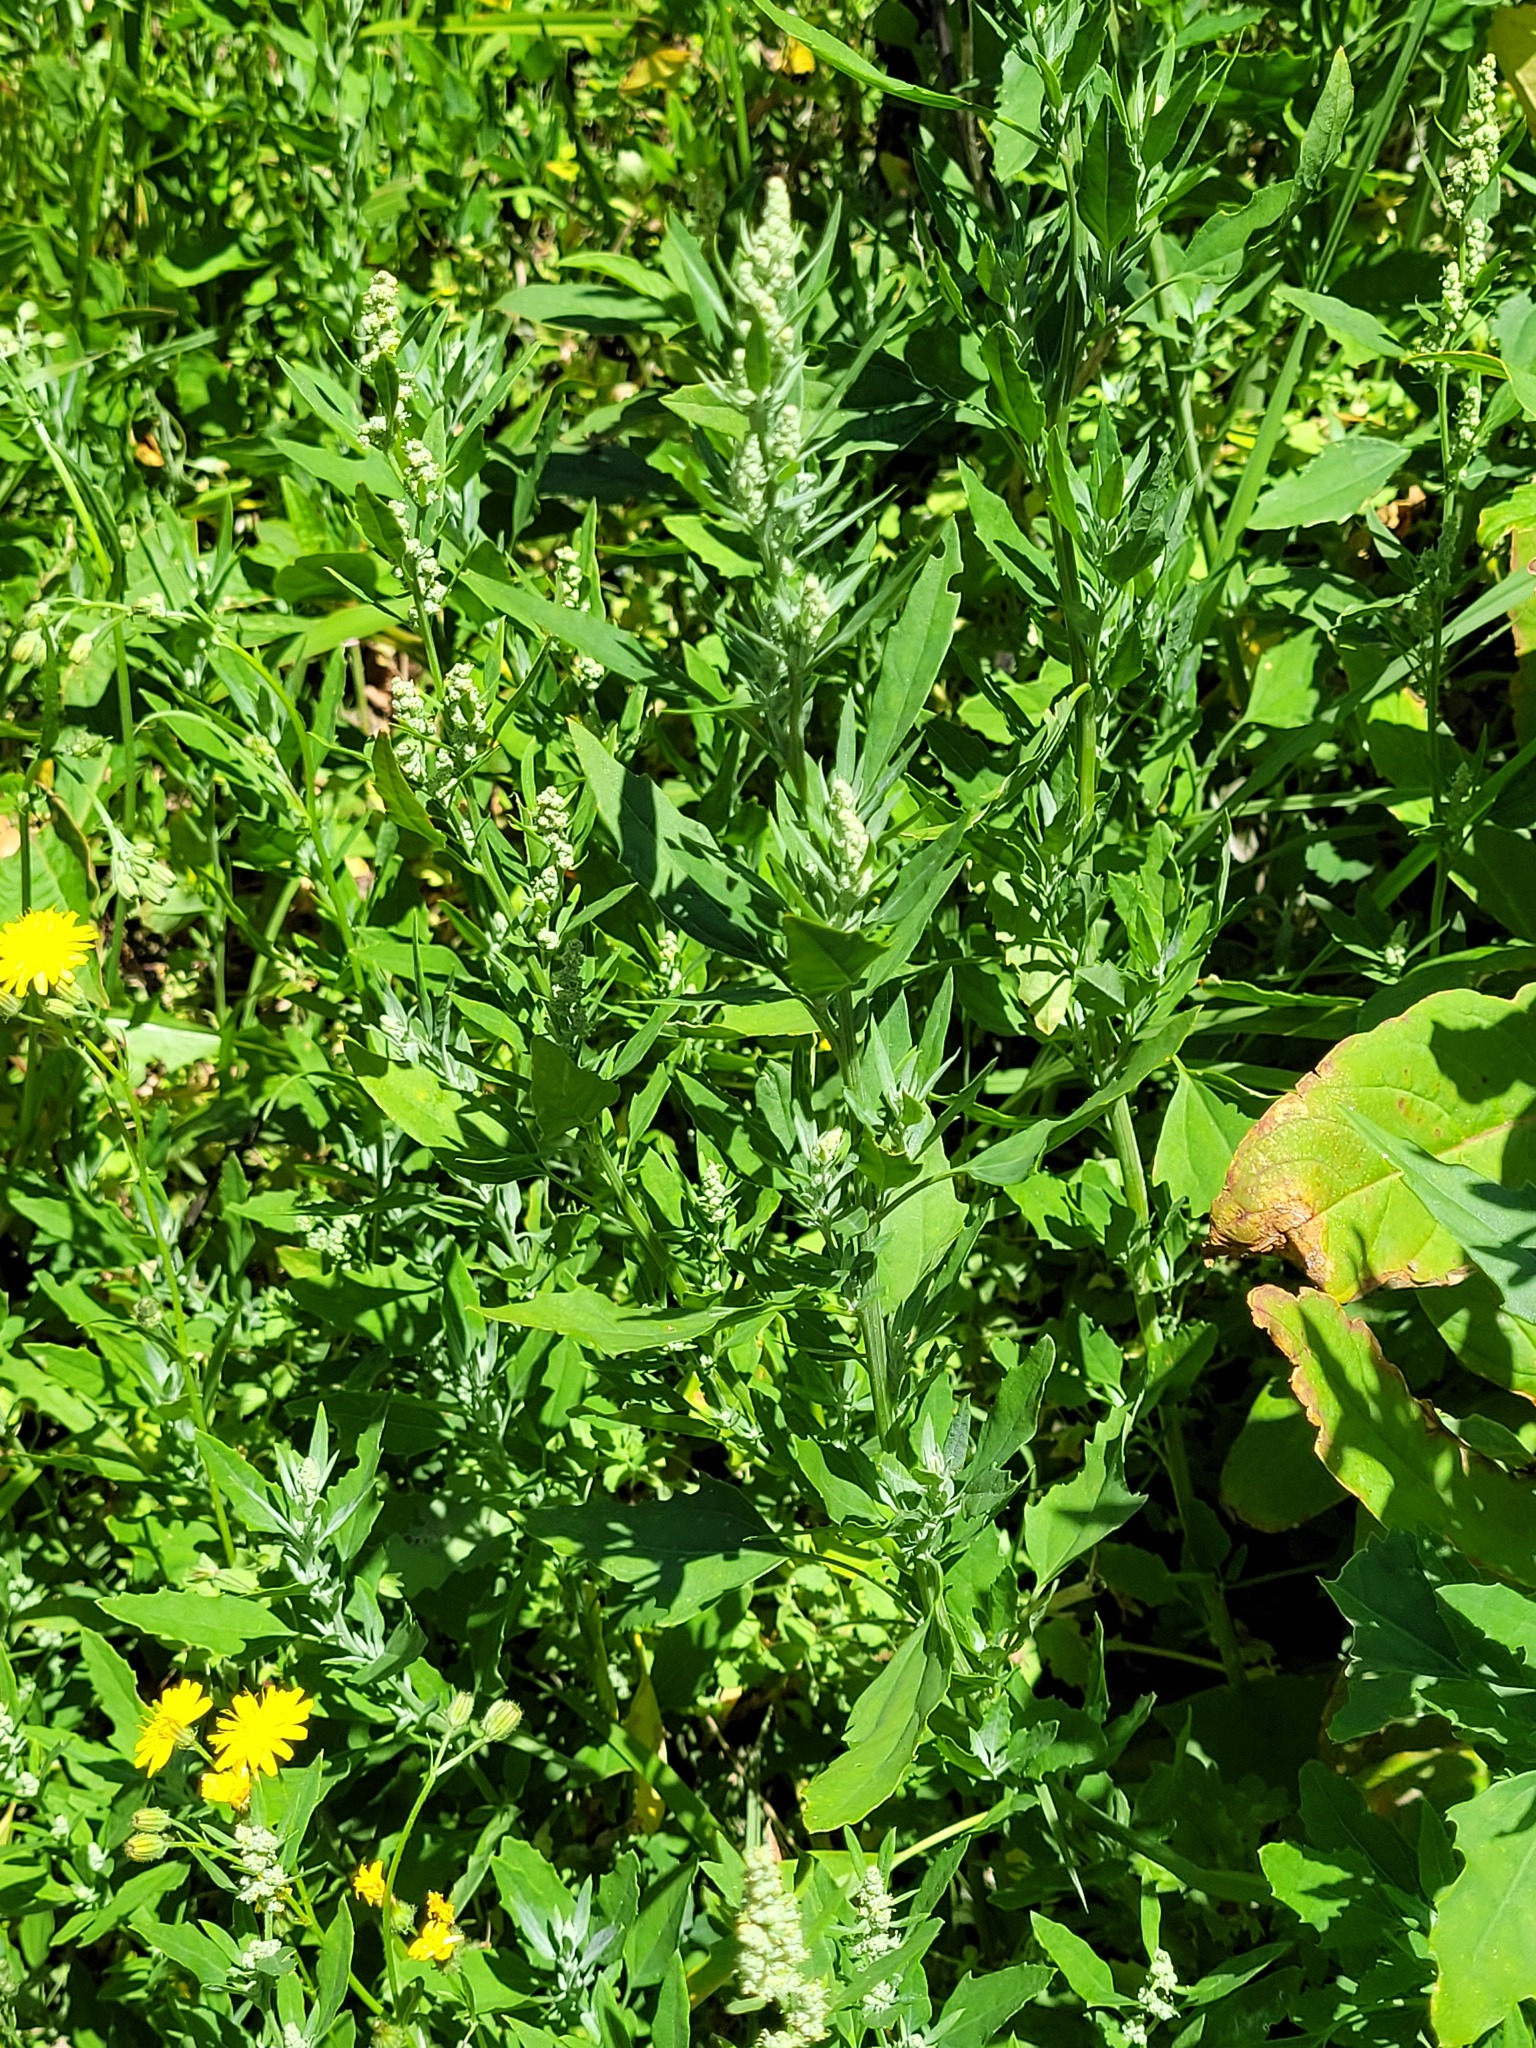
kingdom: Plantae
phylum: Tracheophyta
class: Magnoliopsida
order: Caryophyllales
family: Amaranthaceae
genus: Chenopodium
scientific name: Chenopodium album
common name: Fat-hen
